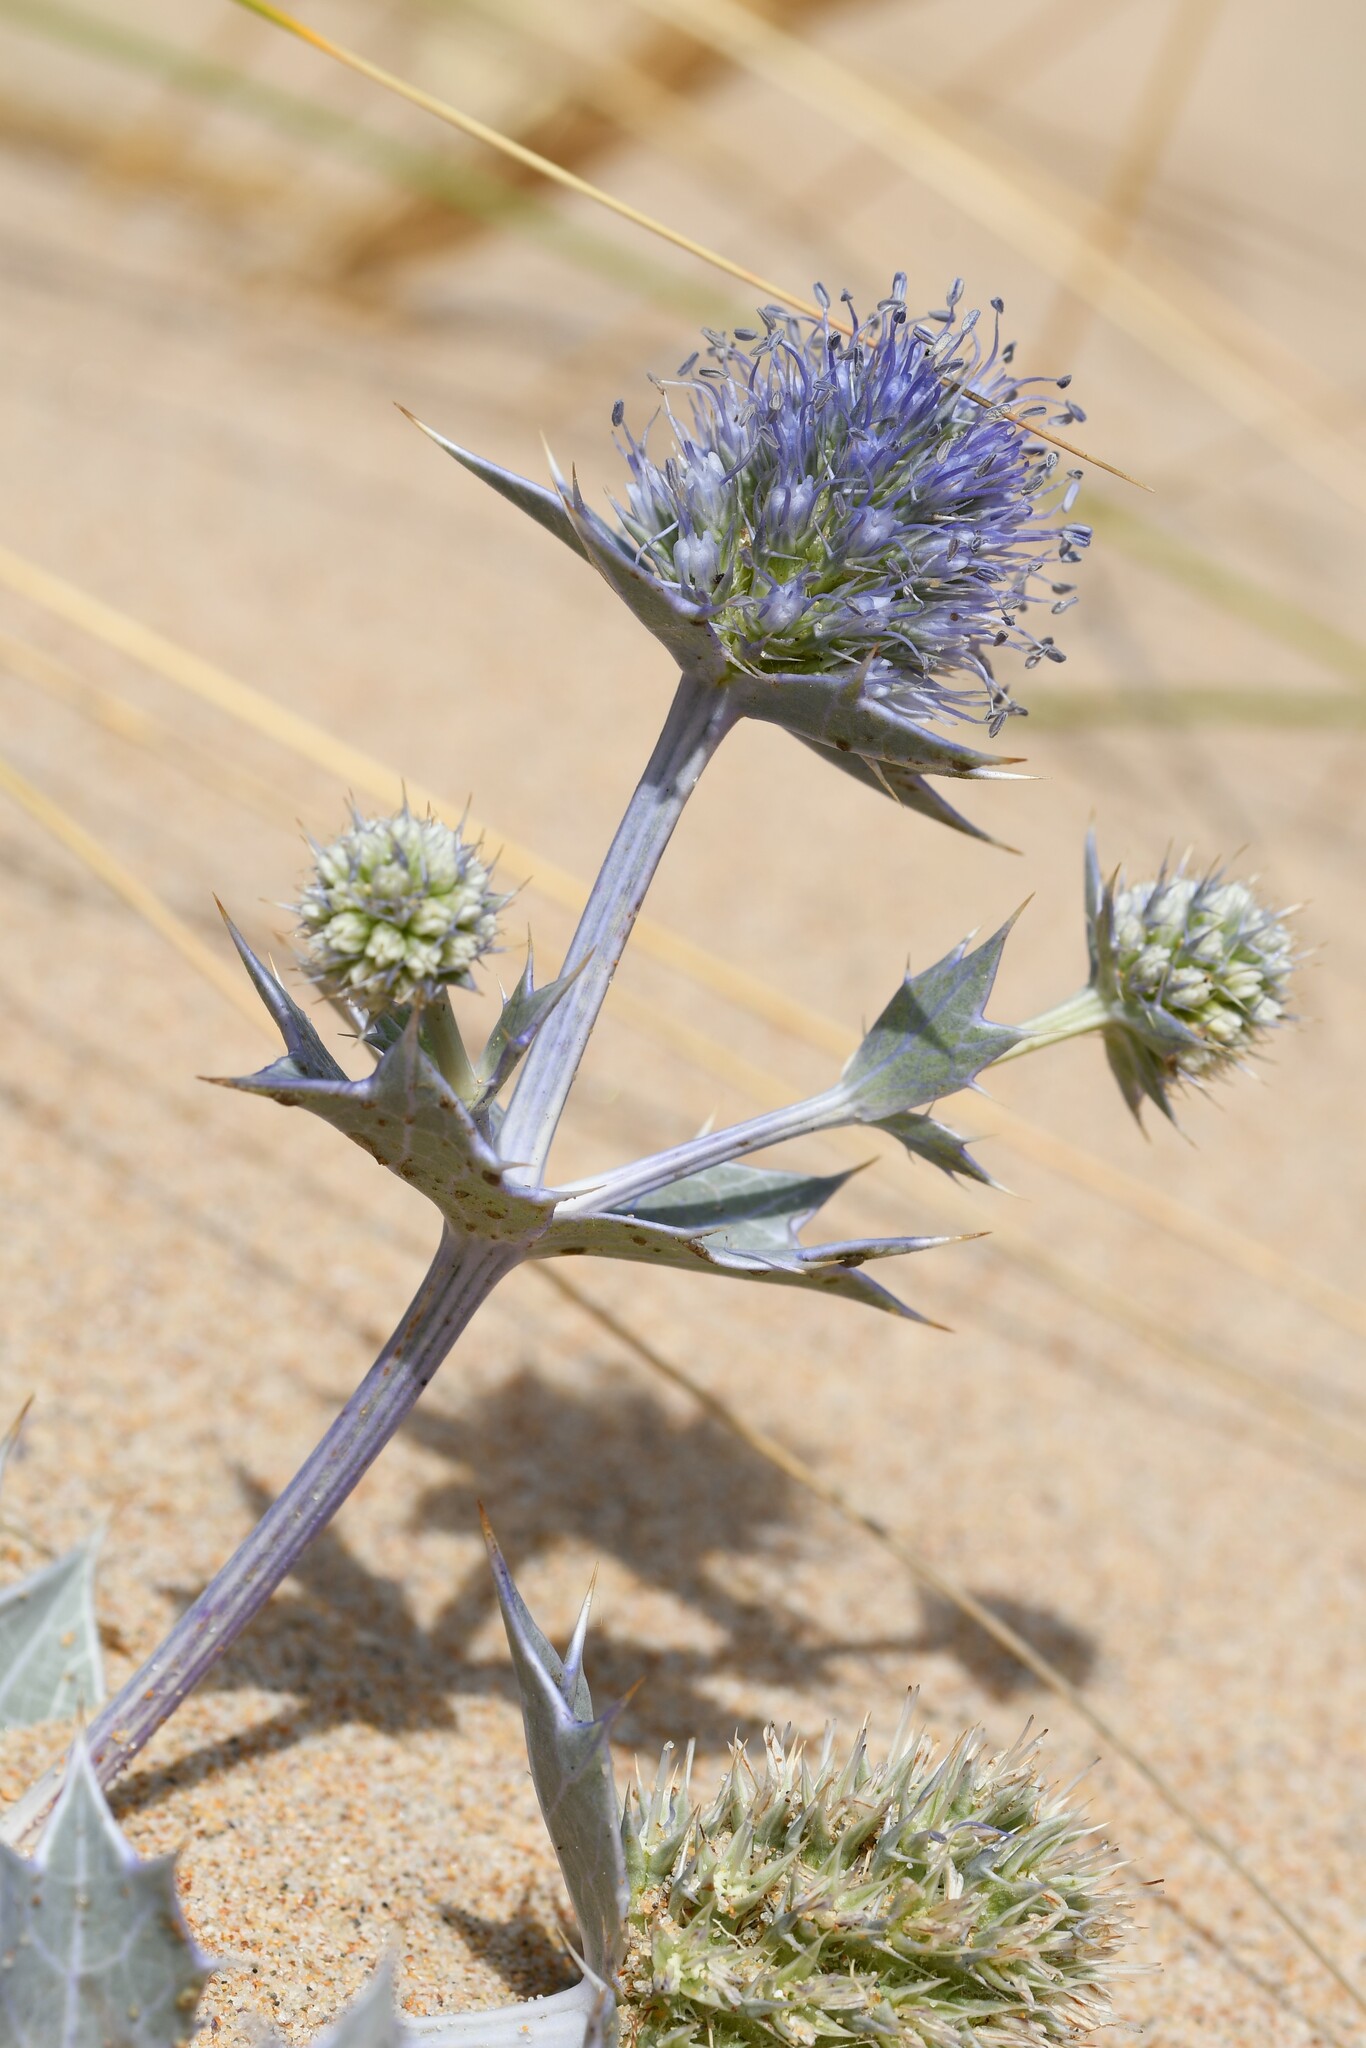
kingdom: Plantae
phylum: Tracheophyta
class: Magnoliopsida
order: Apiales
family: Apiaceae
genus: Eryngium
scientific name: Eryngium maritimum
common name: Sea-holly
